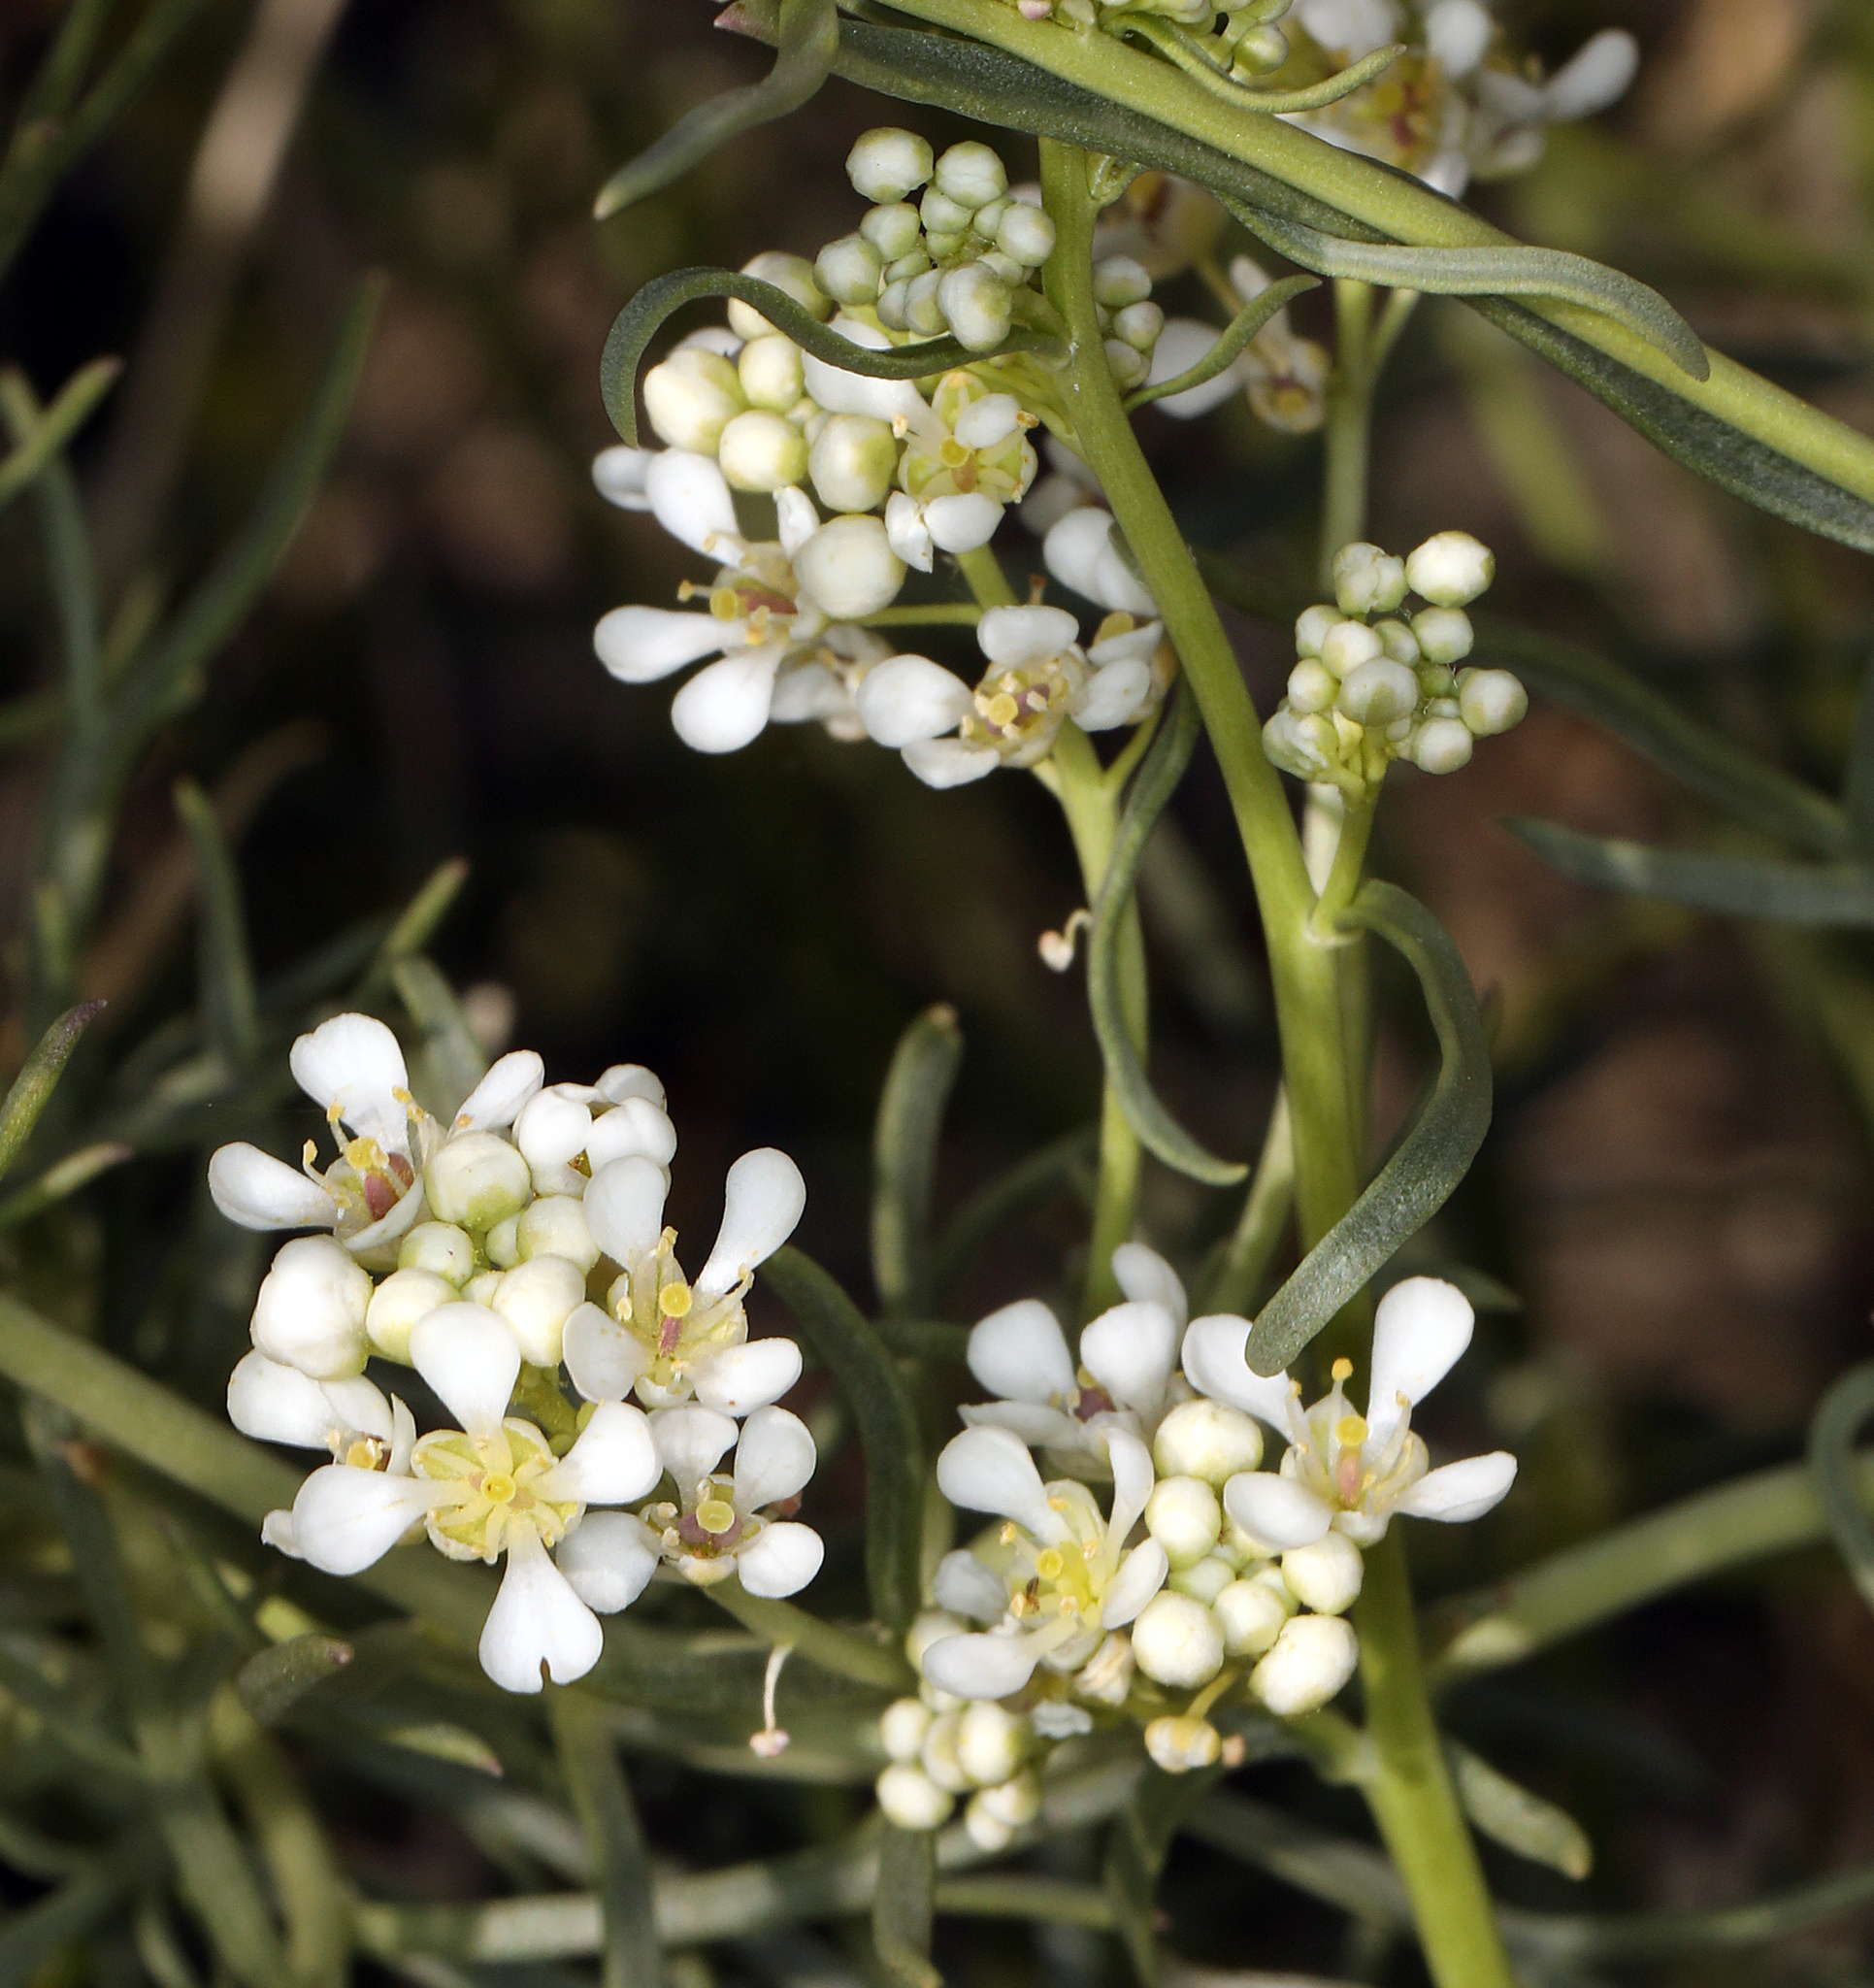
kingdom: Plantae
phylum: Tracheophyta
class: Magnoliopsida
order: Brassicales
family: Brassicaceae
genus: Lepidium
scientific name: Lepidium fremontii
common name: Fremont's pepperwort
